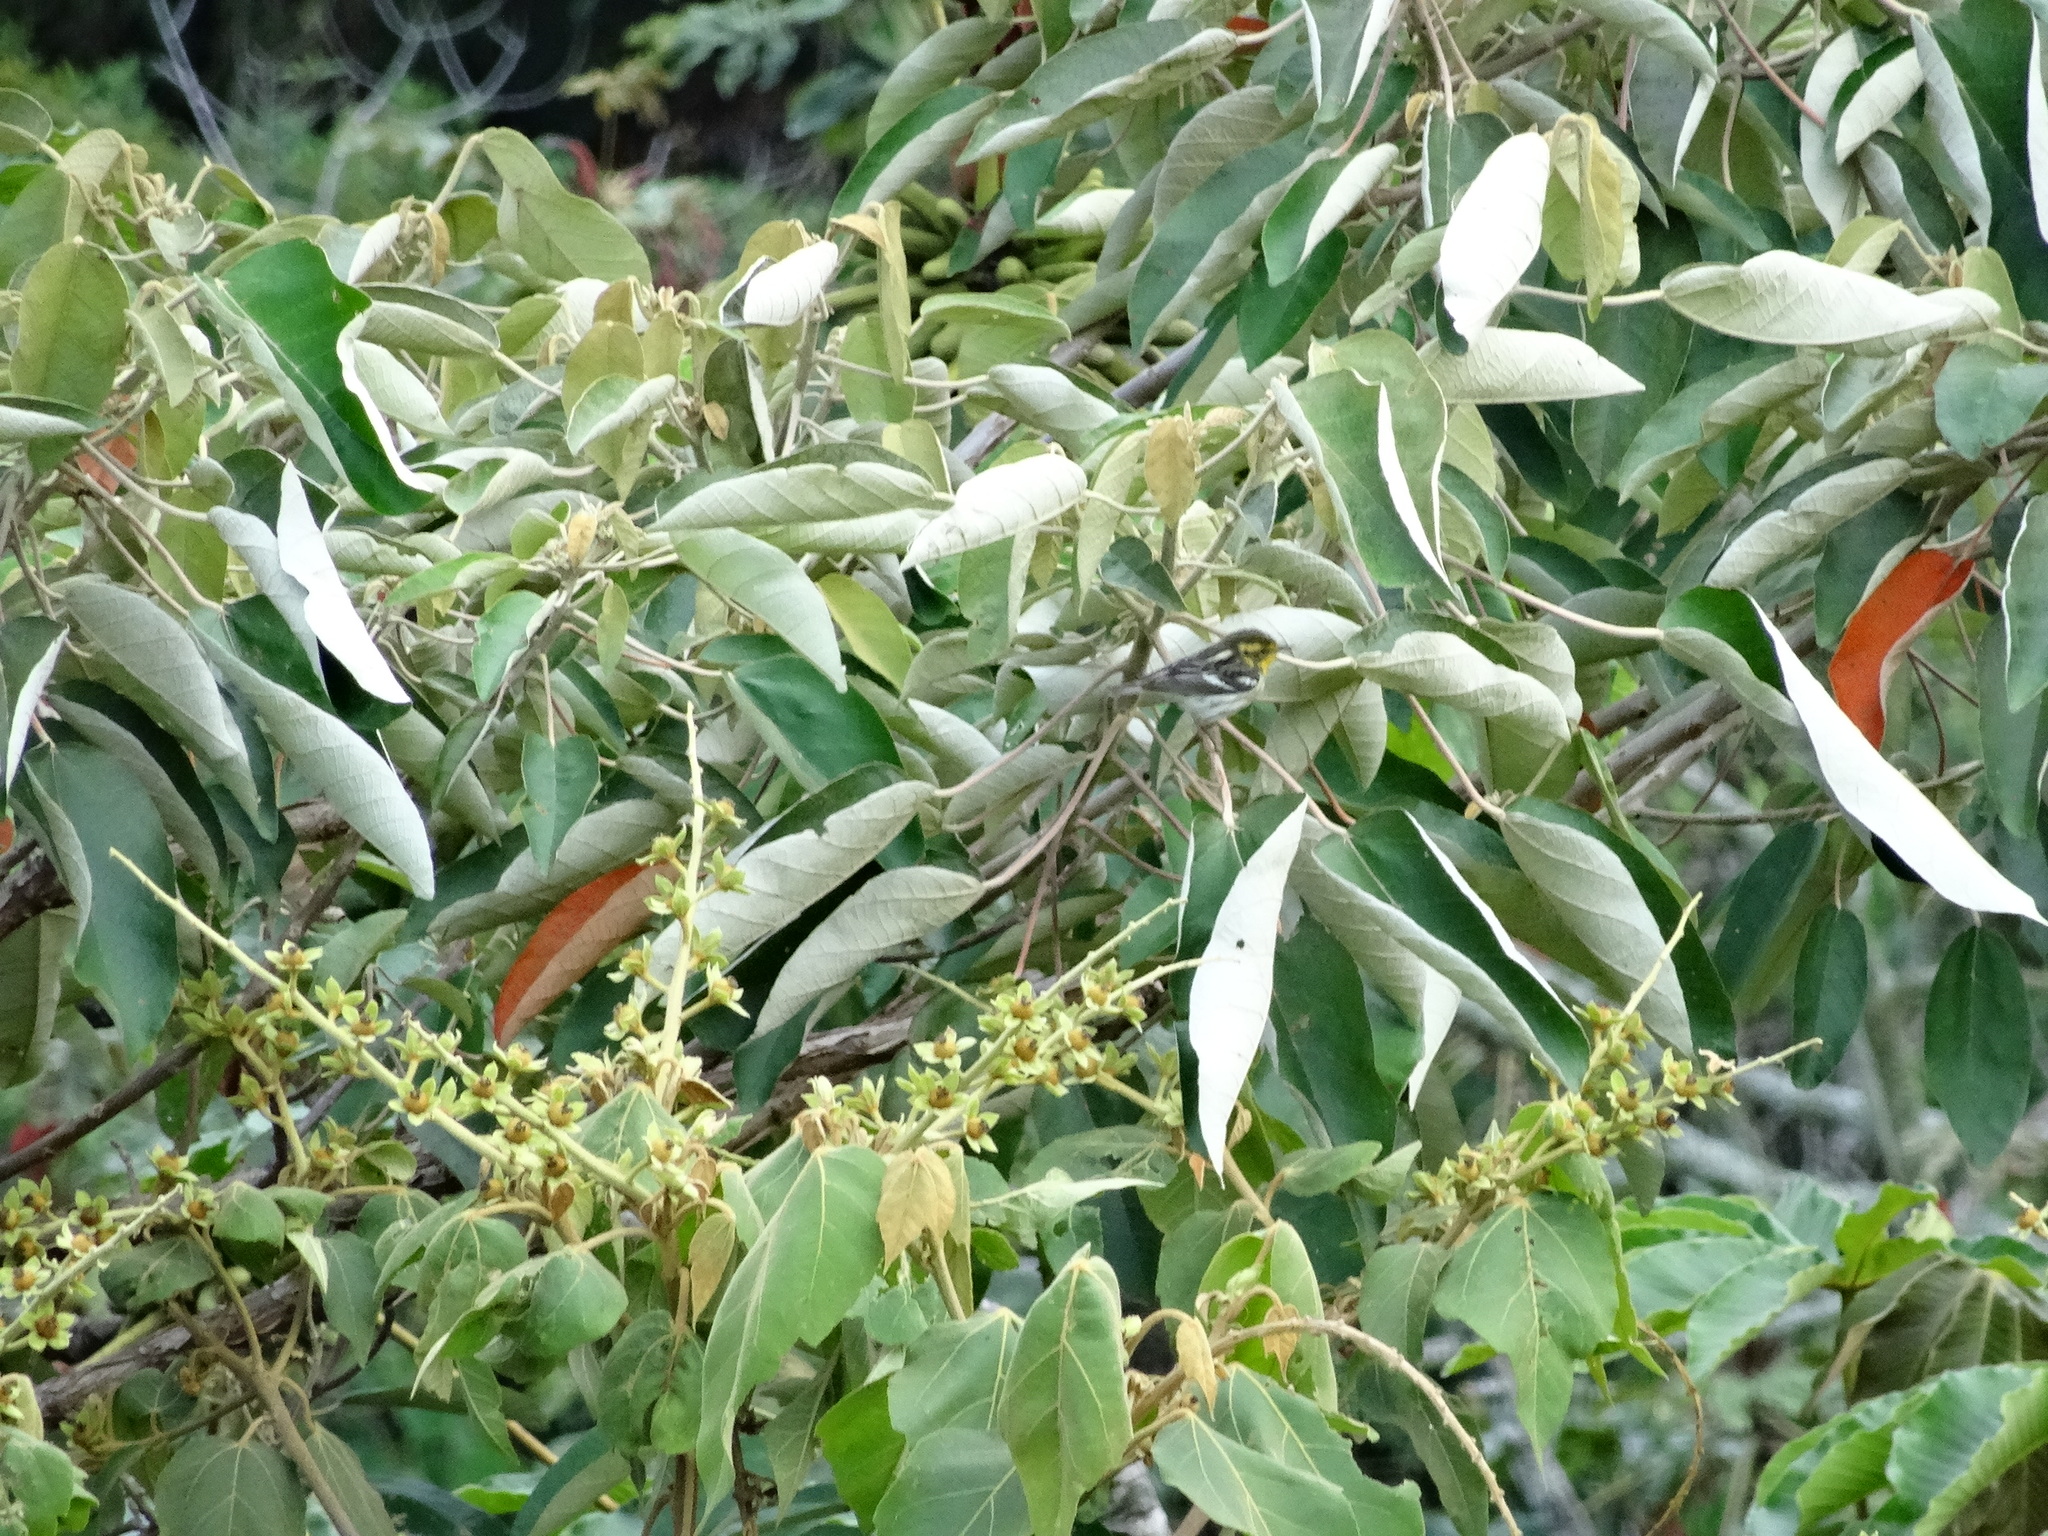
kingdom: Animalia
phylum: Chordata
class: Aves
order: Passeriformes
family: Parulidae
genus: Setophaga
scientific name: Setophaga fusca
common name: Blackburnian warbler
